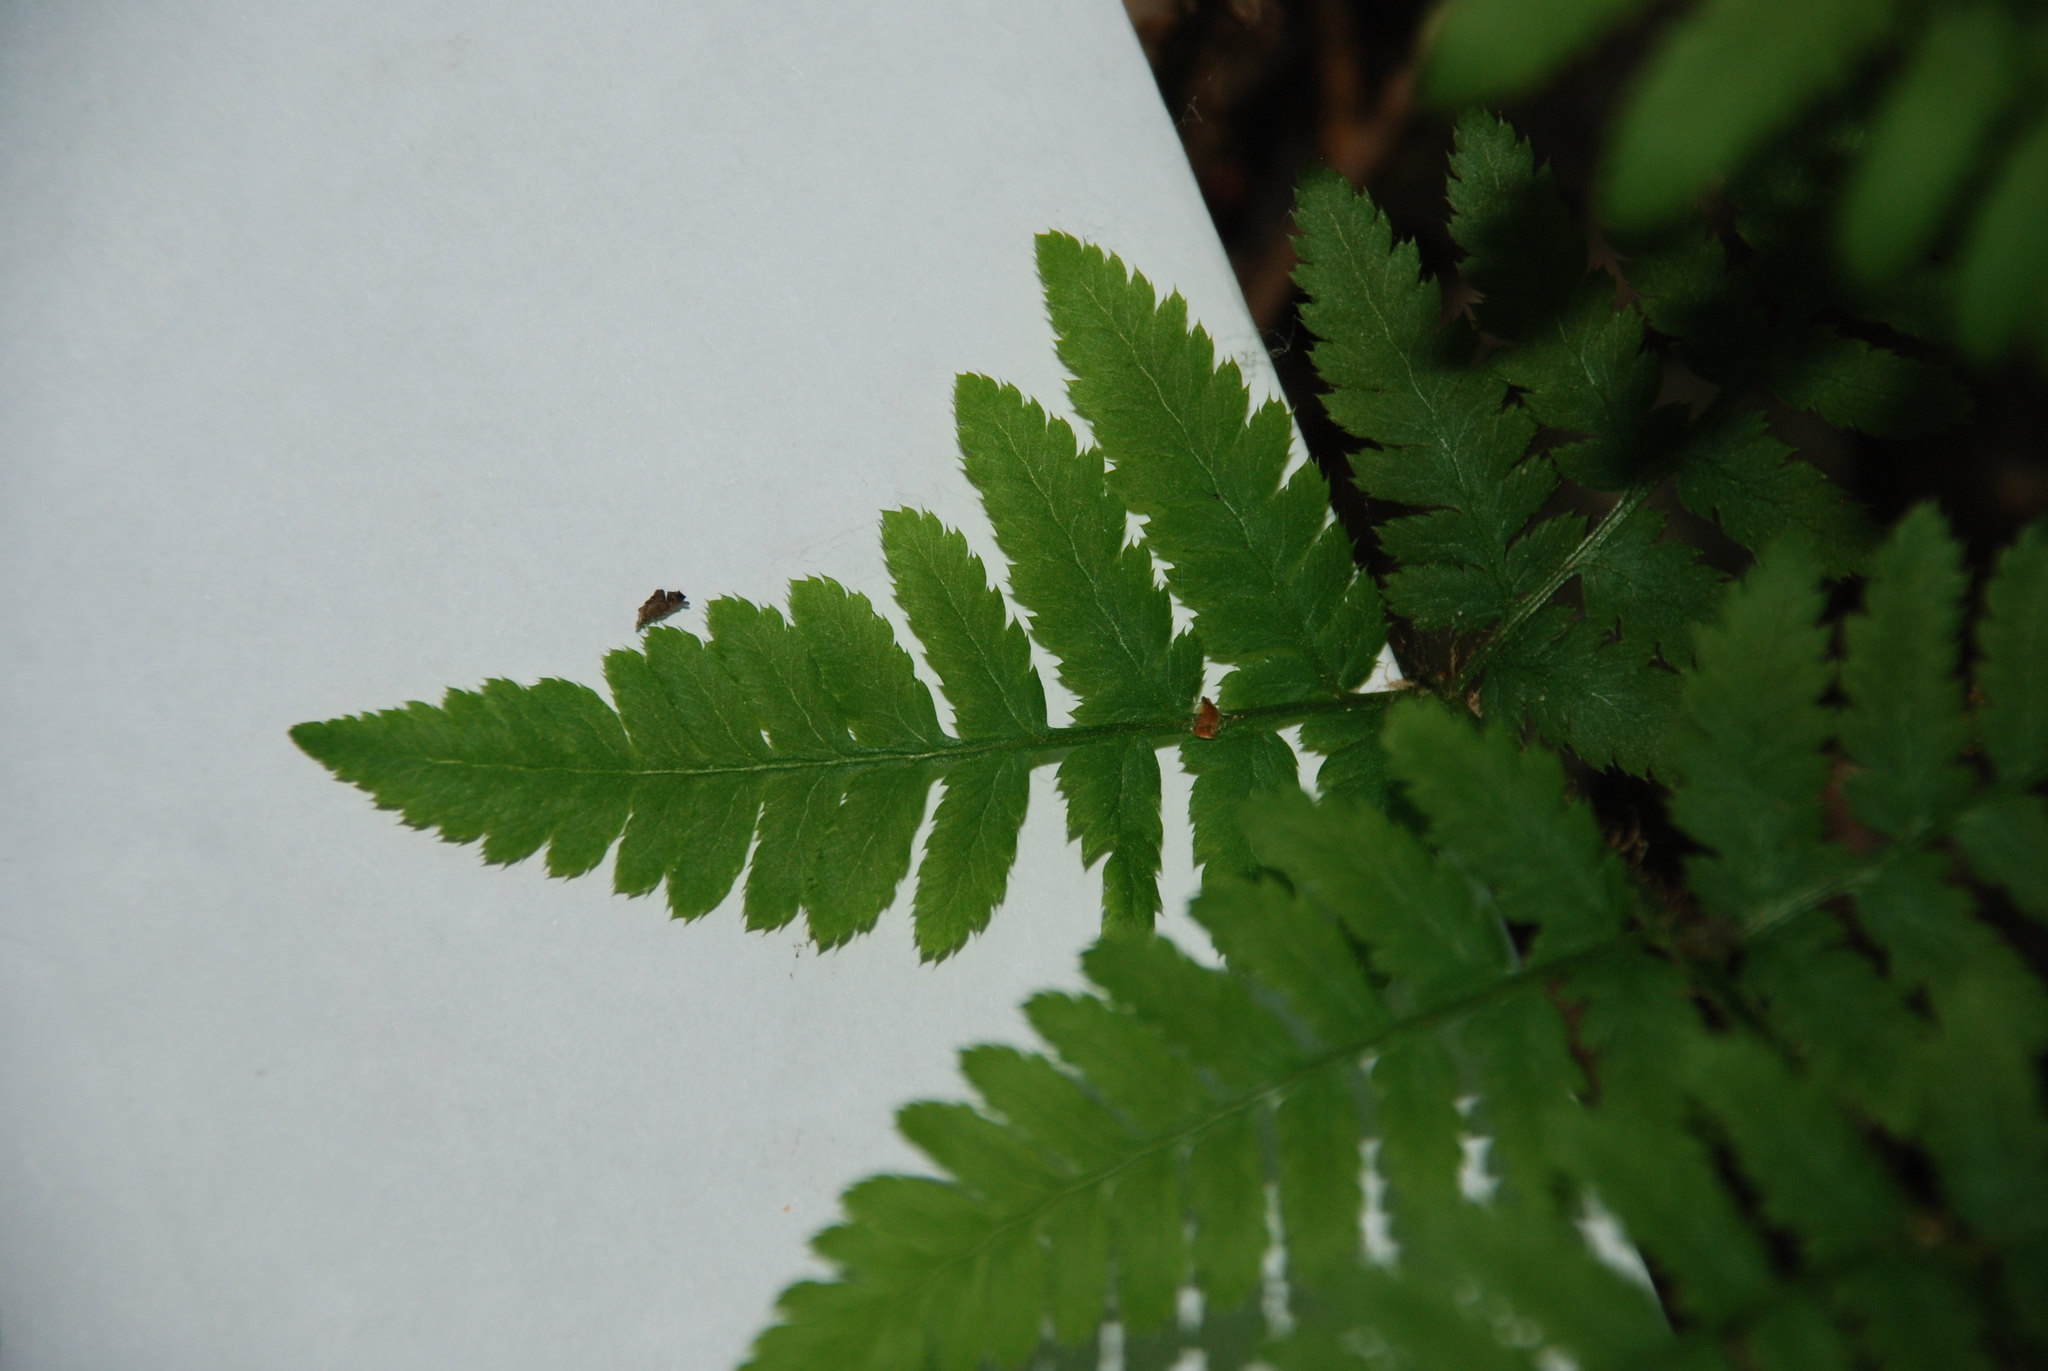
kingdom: Plantae
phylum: Tracheophyta
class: Polypodiopsida
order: Polypodiales
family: Dryopteridaceae
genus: Dryopteris
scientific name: Dryopteris carthusiana
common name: Narrow buckler-fern
